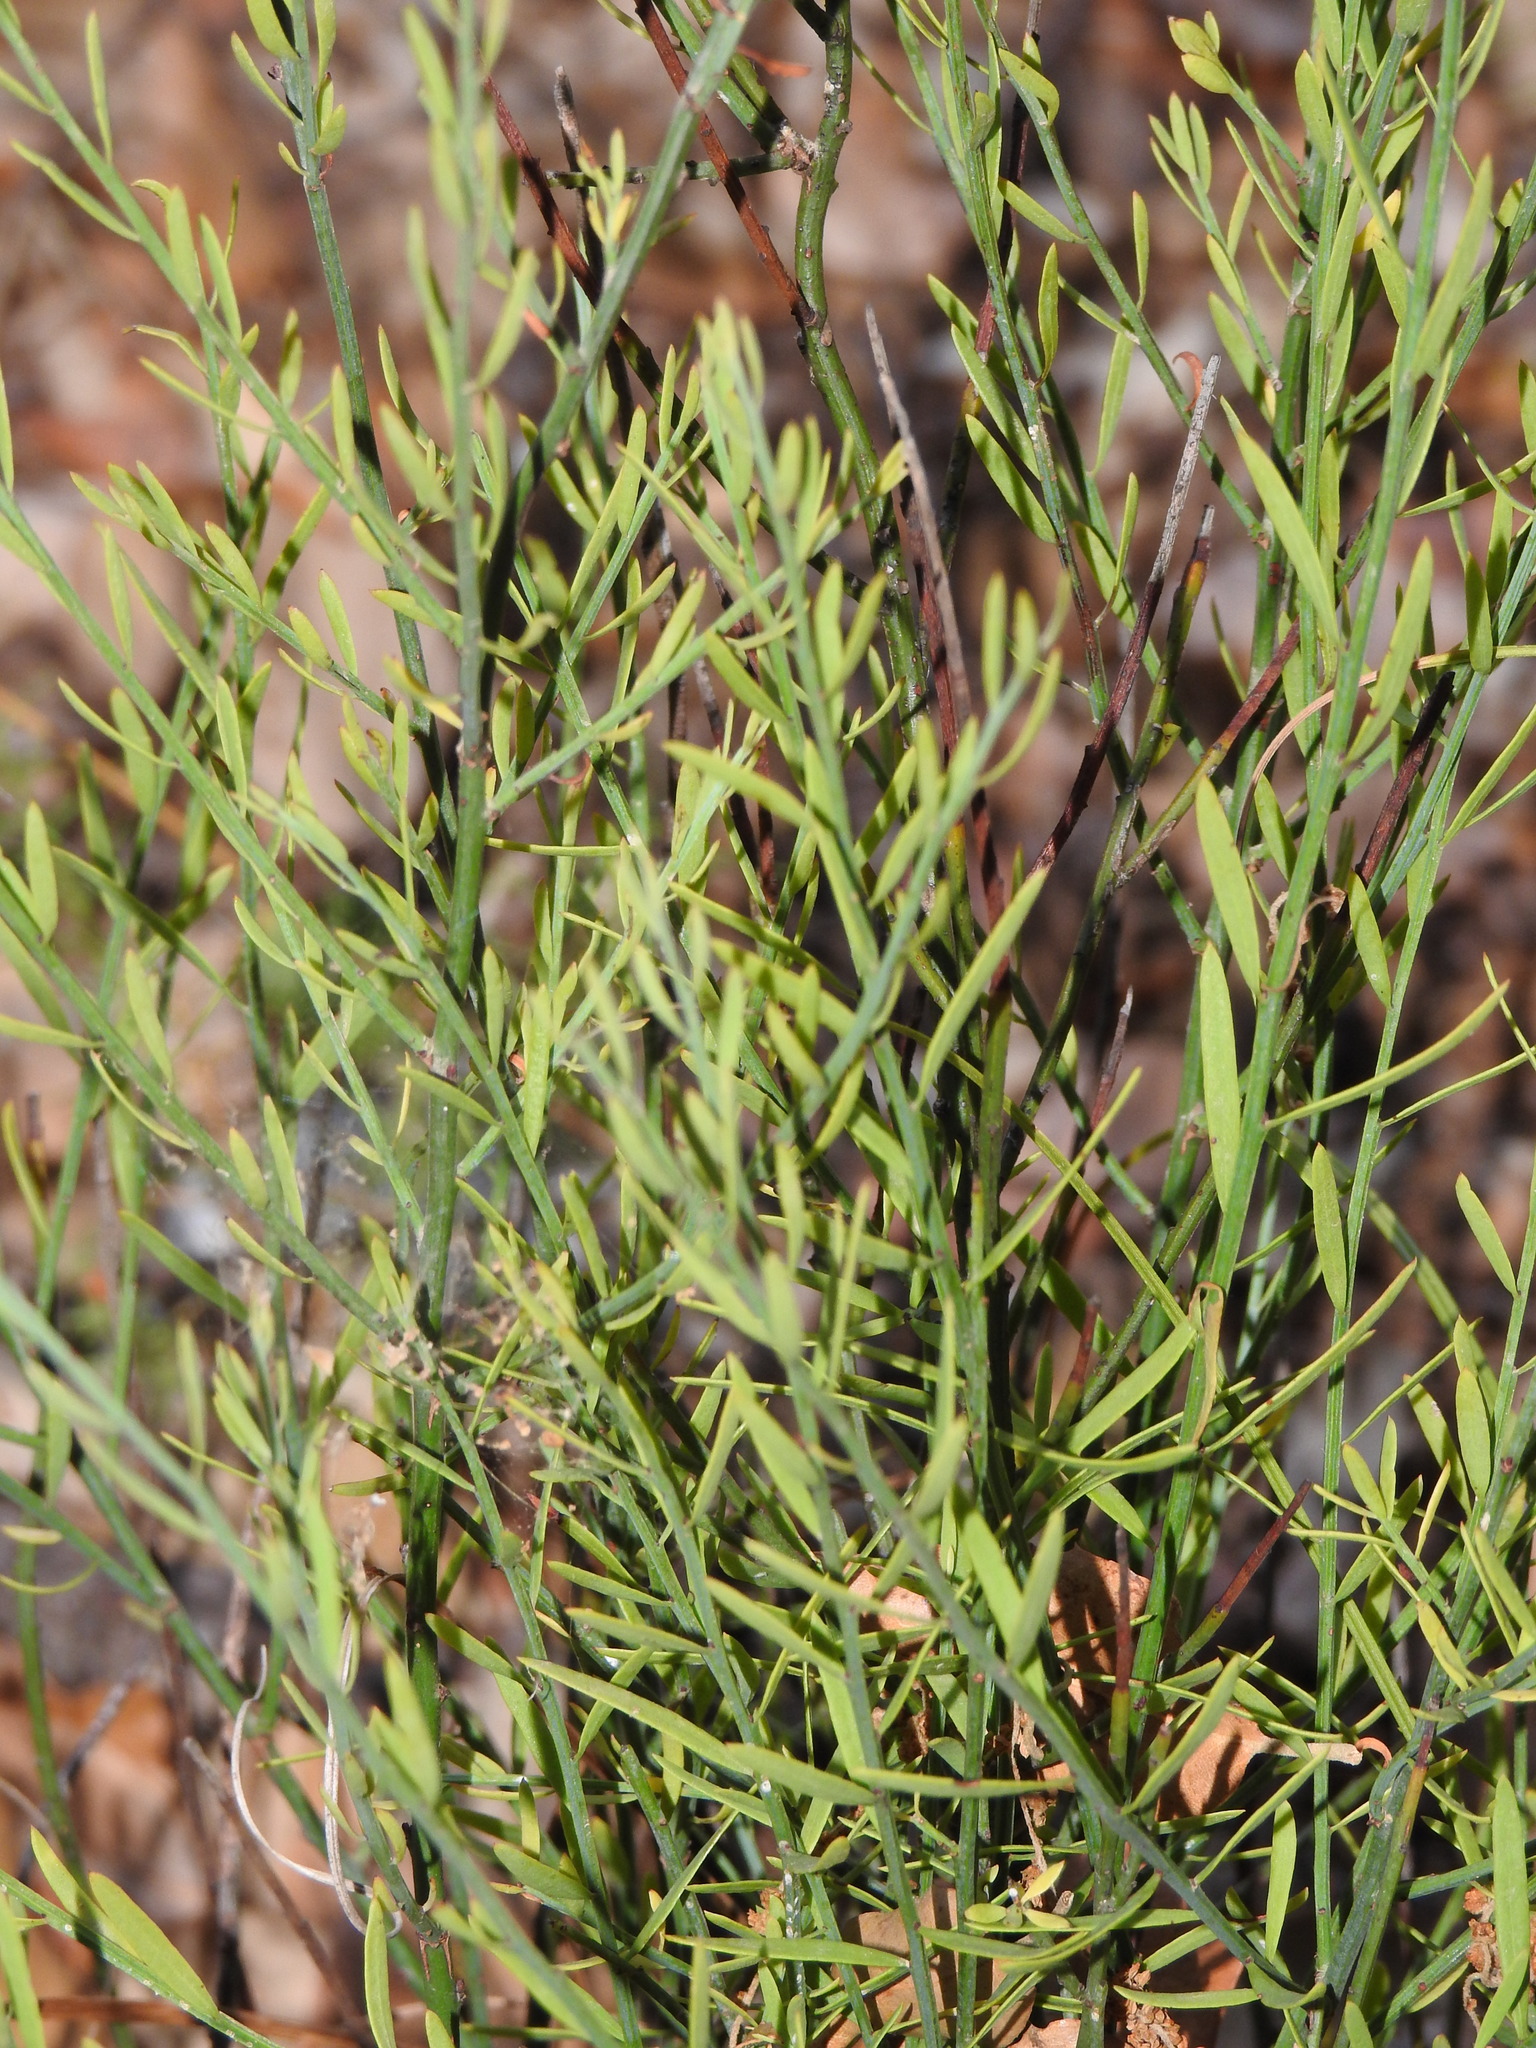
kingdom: Plantae
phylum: Tracheophyta
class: Magnoliopsida
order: Santalales
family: Santalaceae
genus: Osyris
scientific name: Osyris alba
